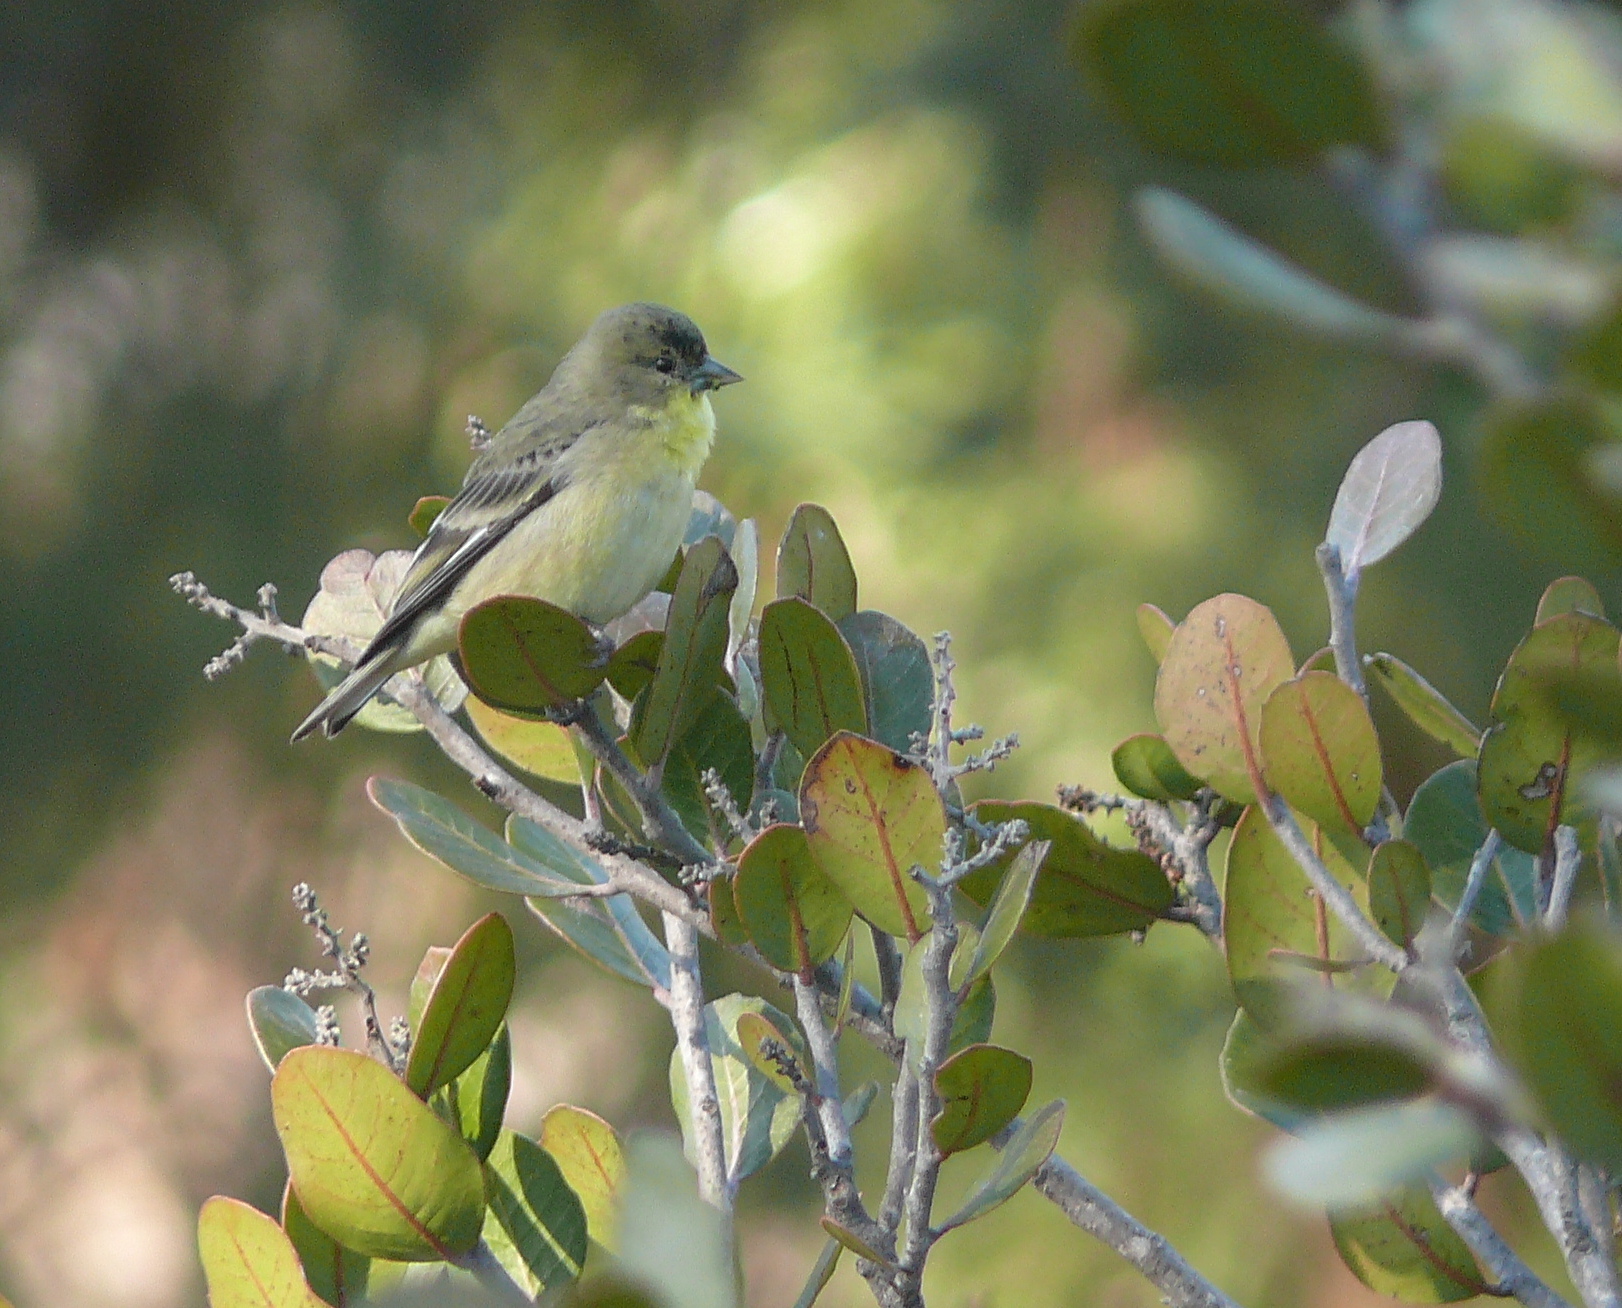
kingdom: Animalia
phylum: Chordata
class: Aves
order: Passeriformes
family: Fringillidae
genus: Spinus
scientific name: Spinus psaltria
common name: Lesser goldfinch
